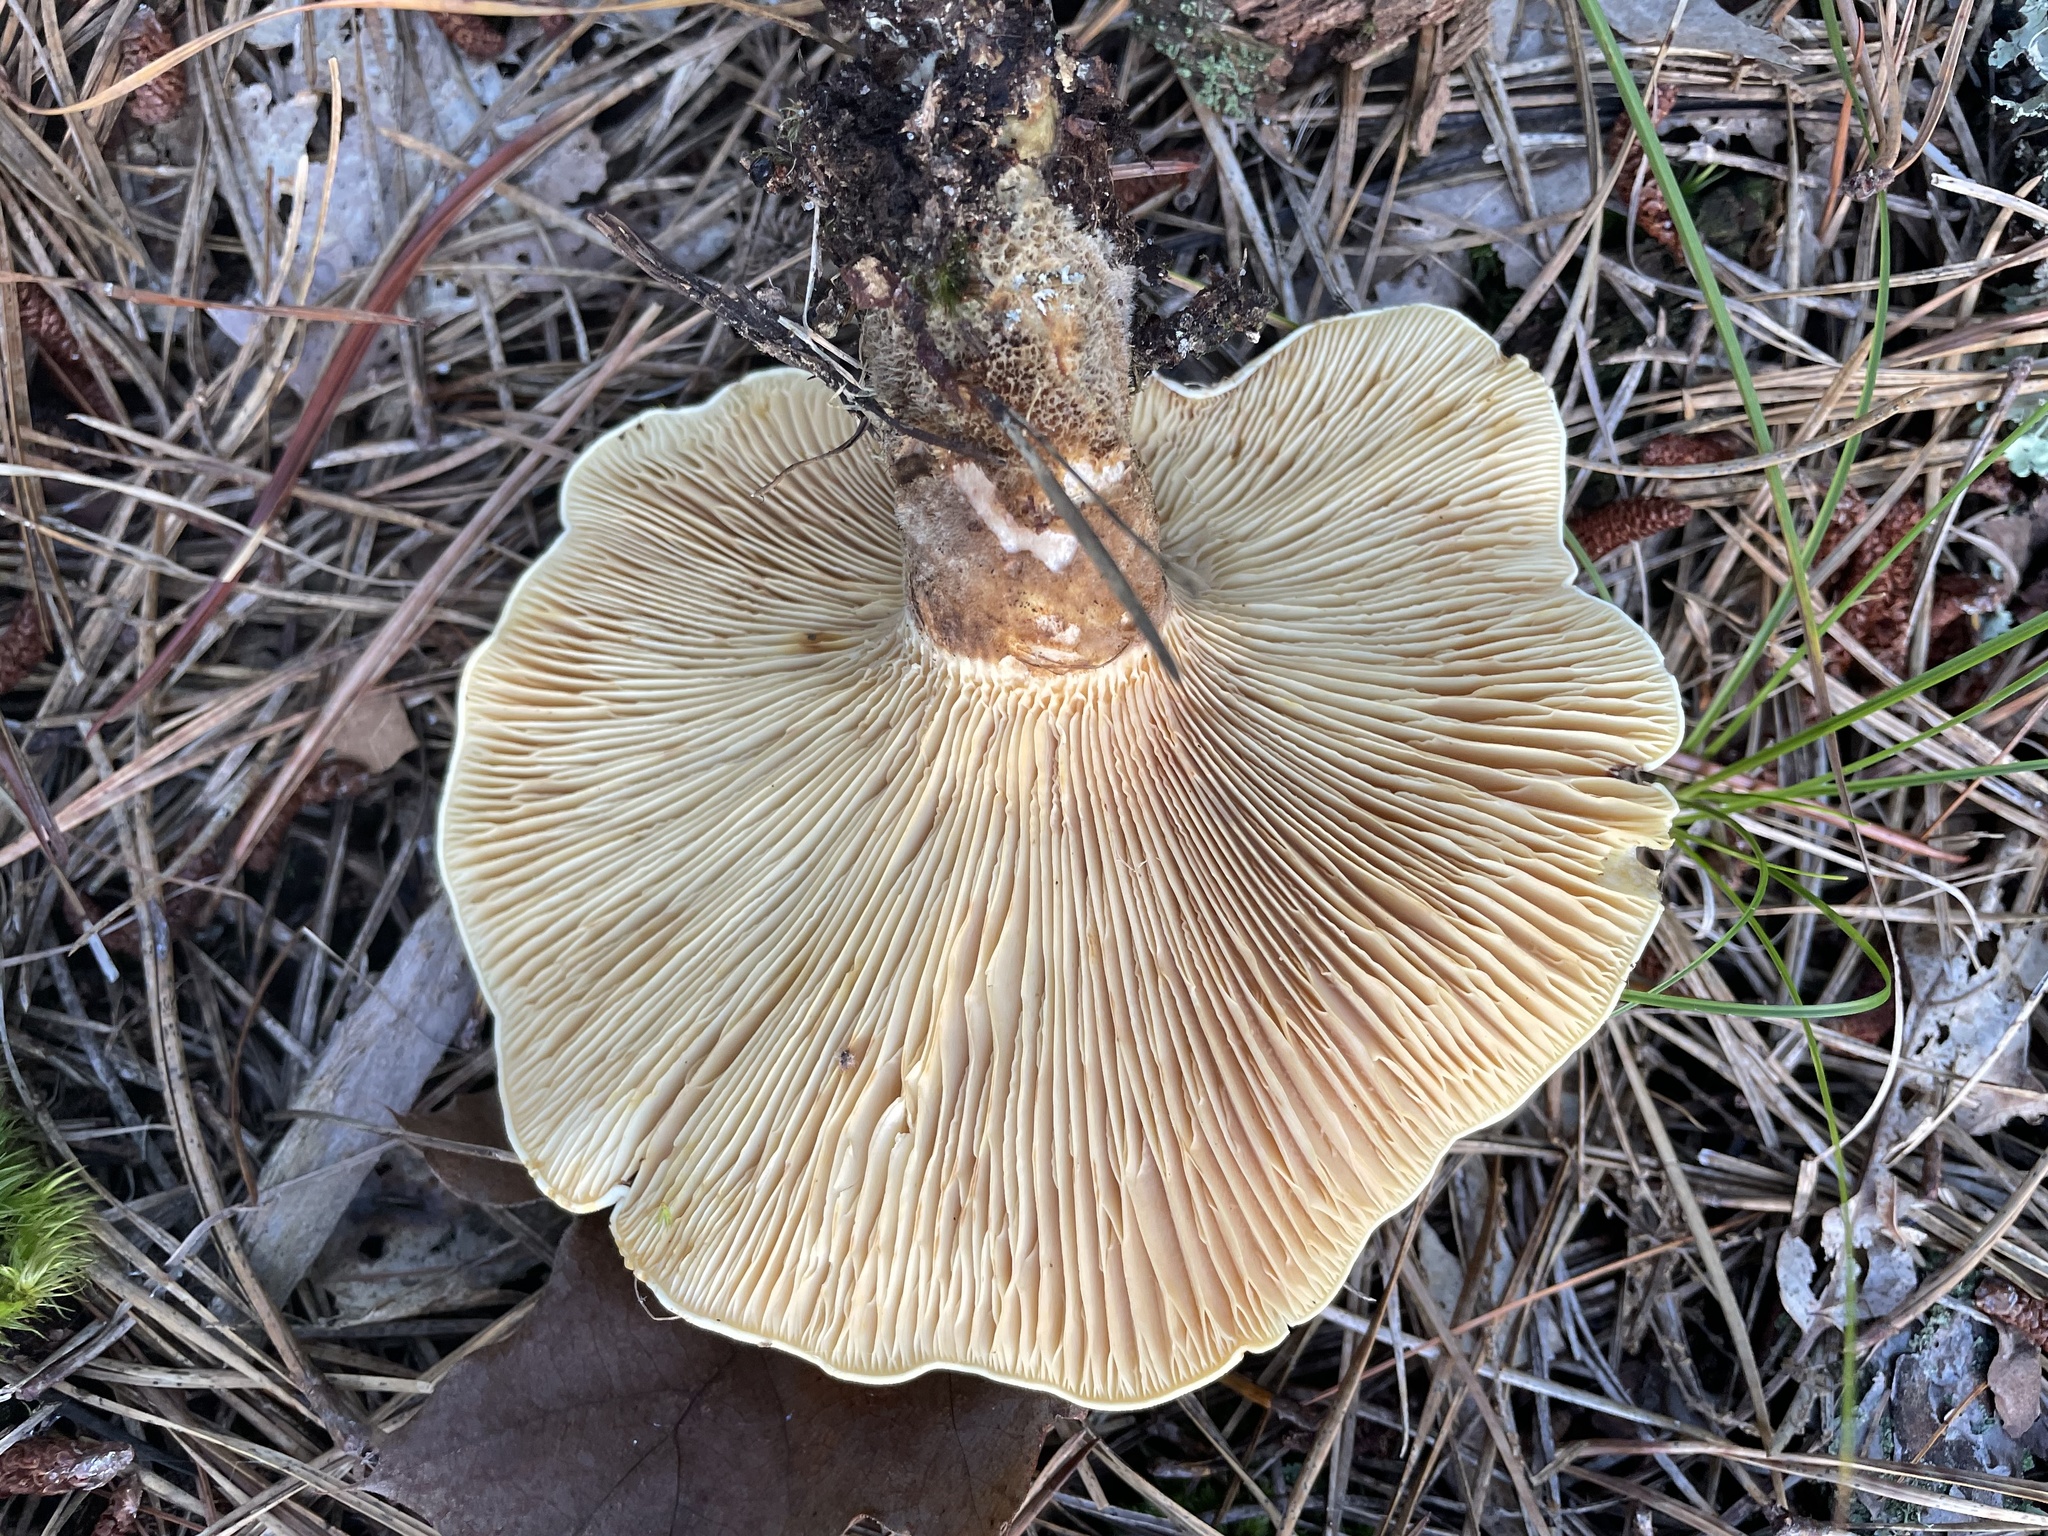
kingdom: Fungi
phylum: Basidiomycota
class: Agaricomycetes
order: Boletales
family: Tapinellaceae
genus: Tapinella
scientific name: Tapinella atrotomentosa
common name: Velvet rollrim
